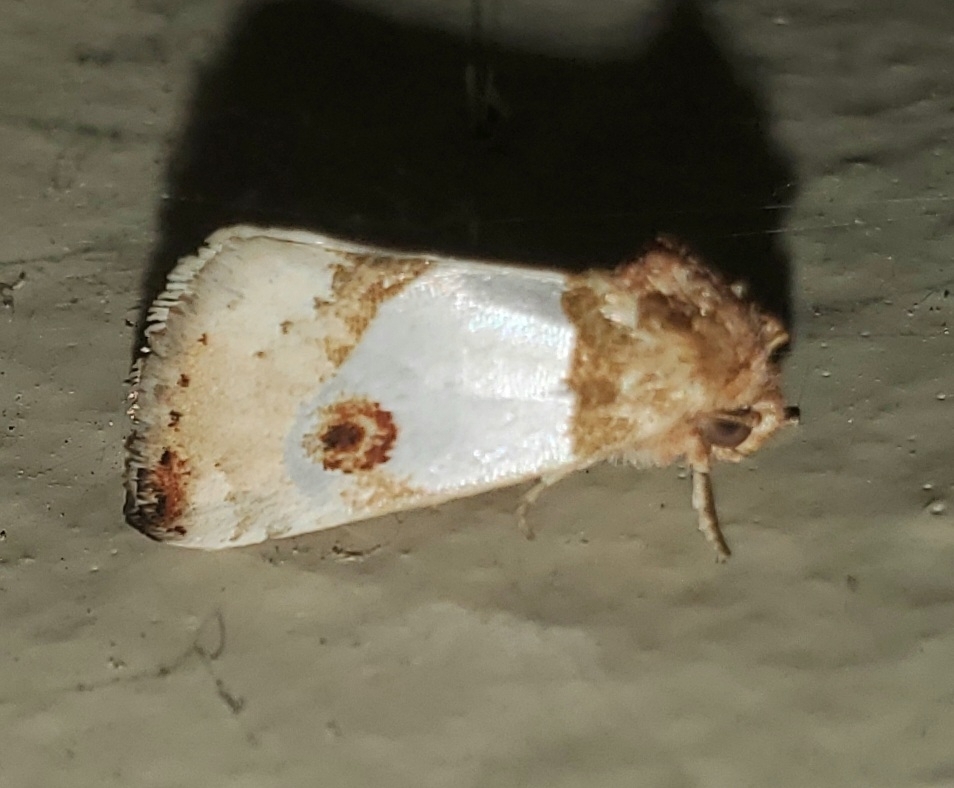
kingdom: Animalia
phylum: Arthropoda
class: Insecta
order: Lepidoptera
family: Noctuidae
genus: Schinia
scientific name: Schinia oculata
